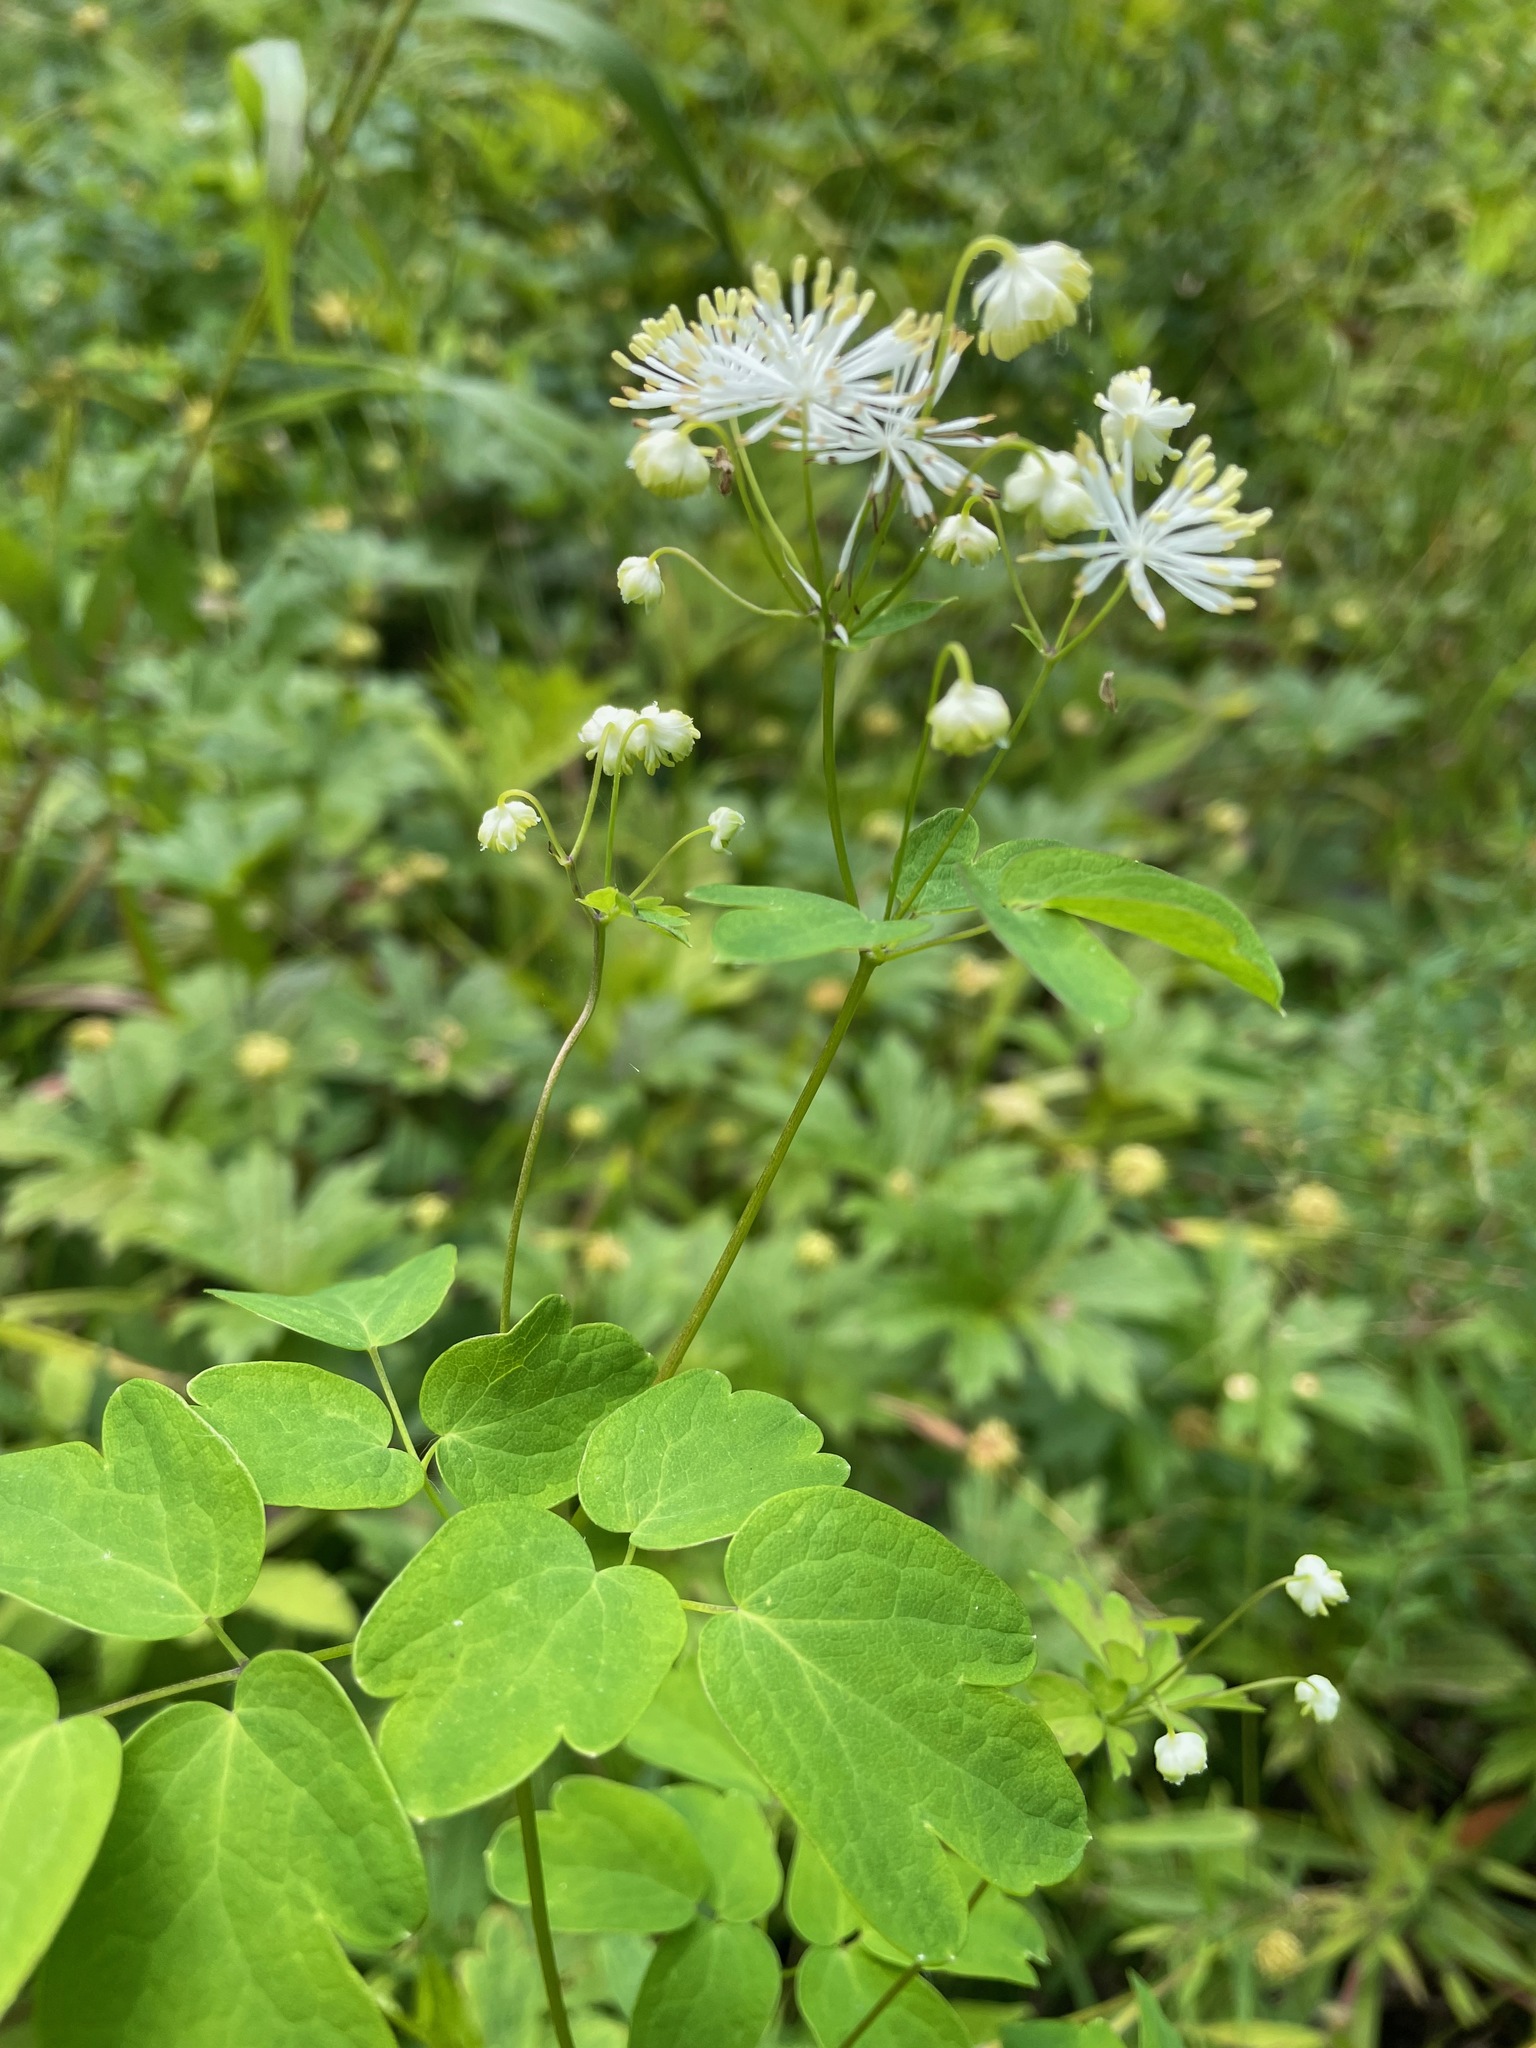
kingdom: Plantae
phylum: Tracheophyta
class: Magnoliopsida
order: Ranunculales
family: Ranunculaceae
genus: Thalictrum
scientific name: Thalictrum pubescens
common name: King-of-the-meadow
